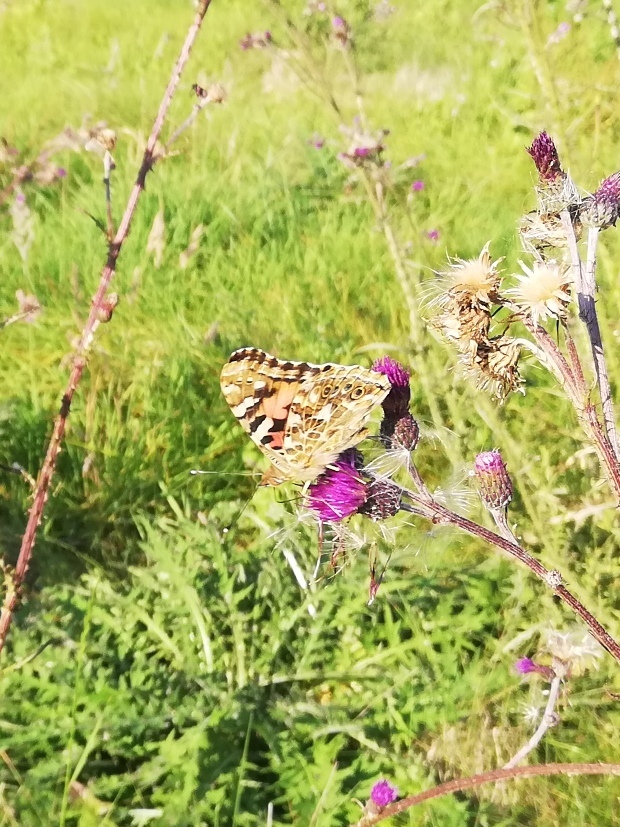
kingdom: Animalia
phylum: Arthropoda
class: Insecta
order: Lepidoptera
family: Nymphalidae
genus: Vanessa
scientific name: Vanessa cardui
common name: Painted lady
